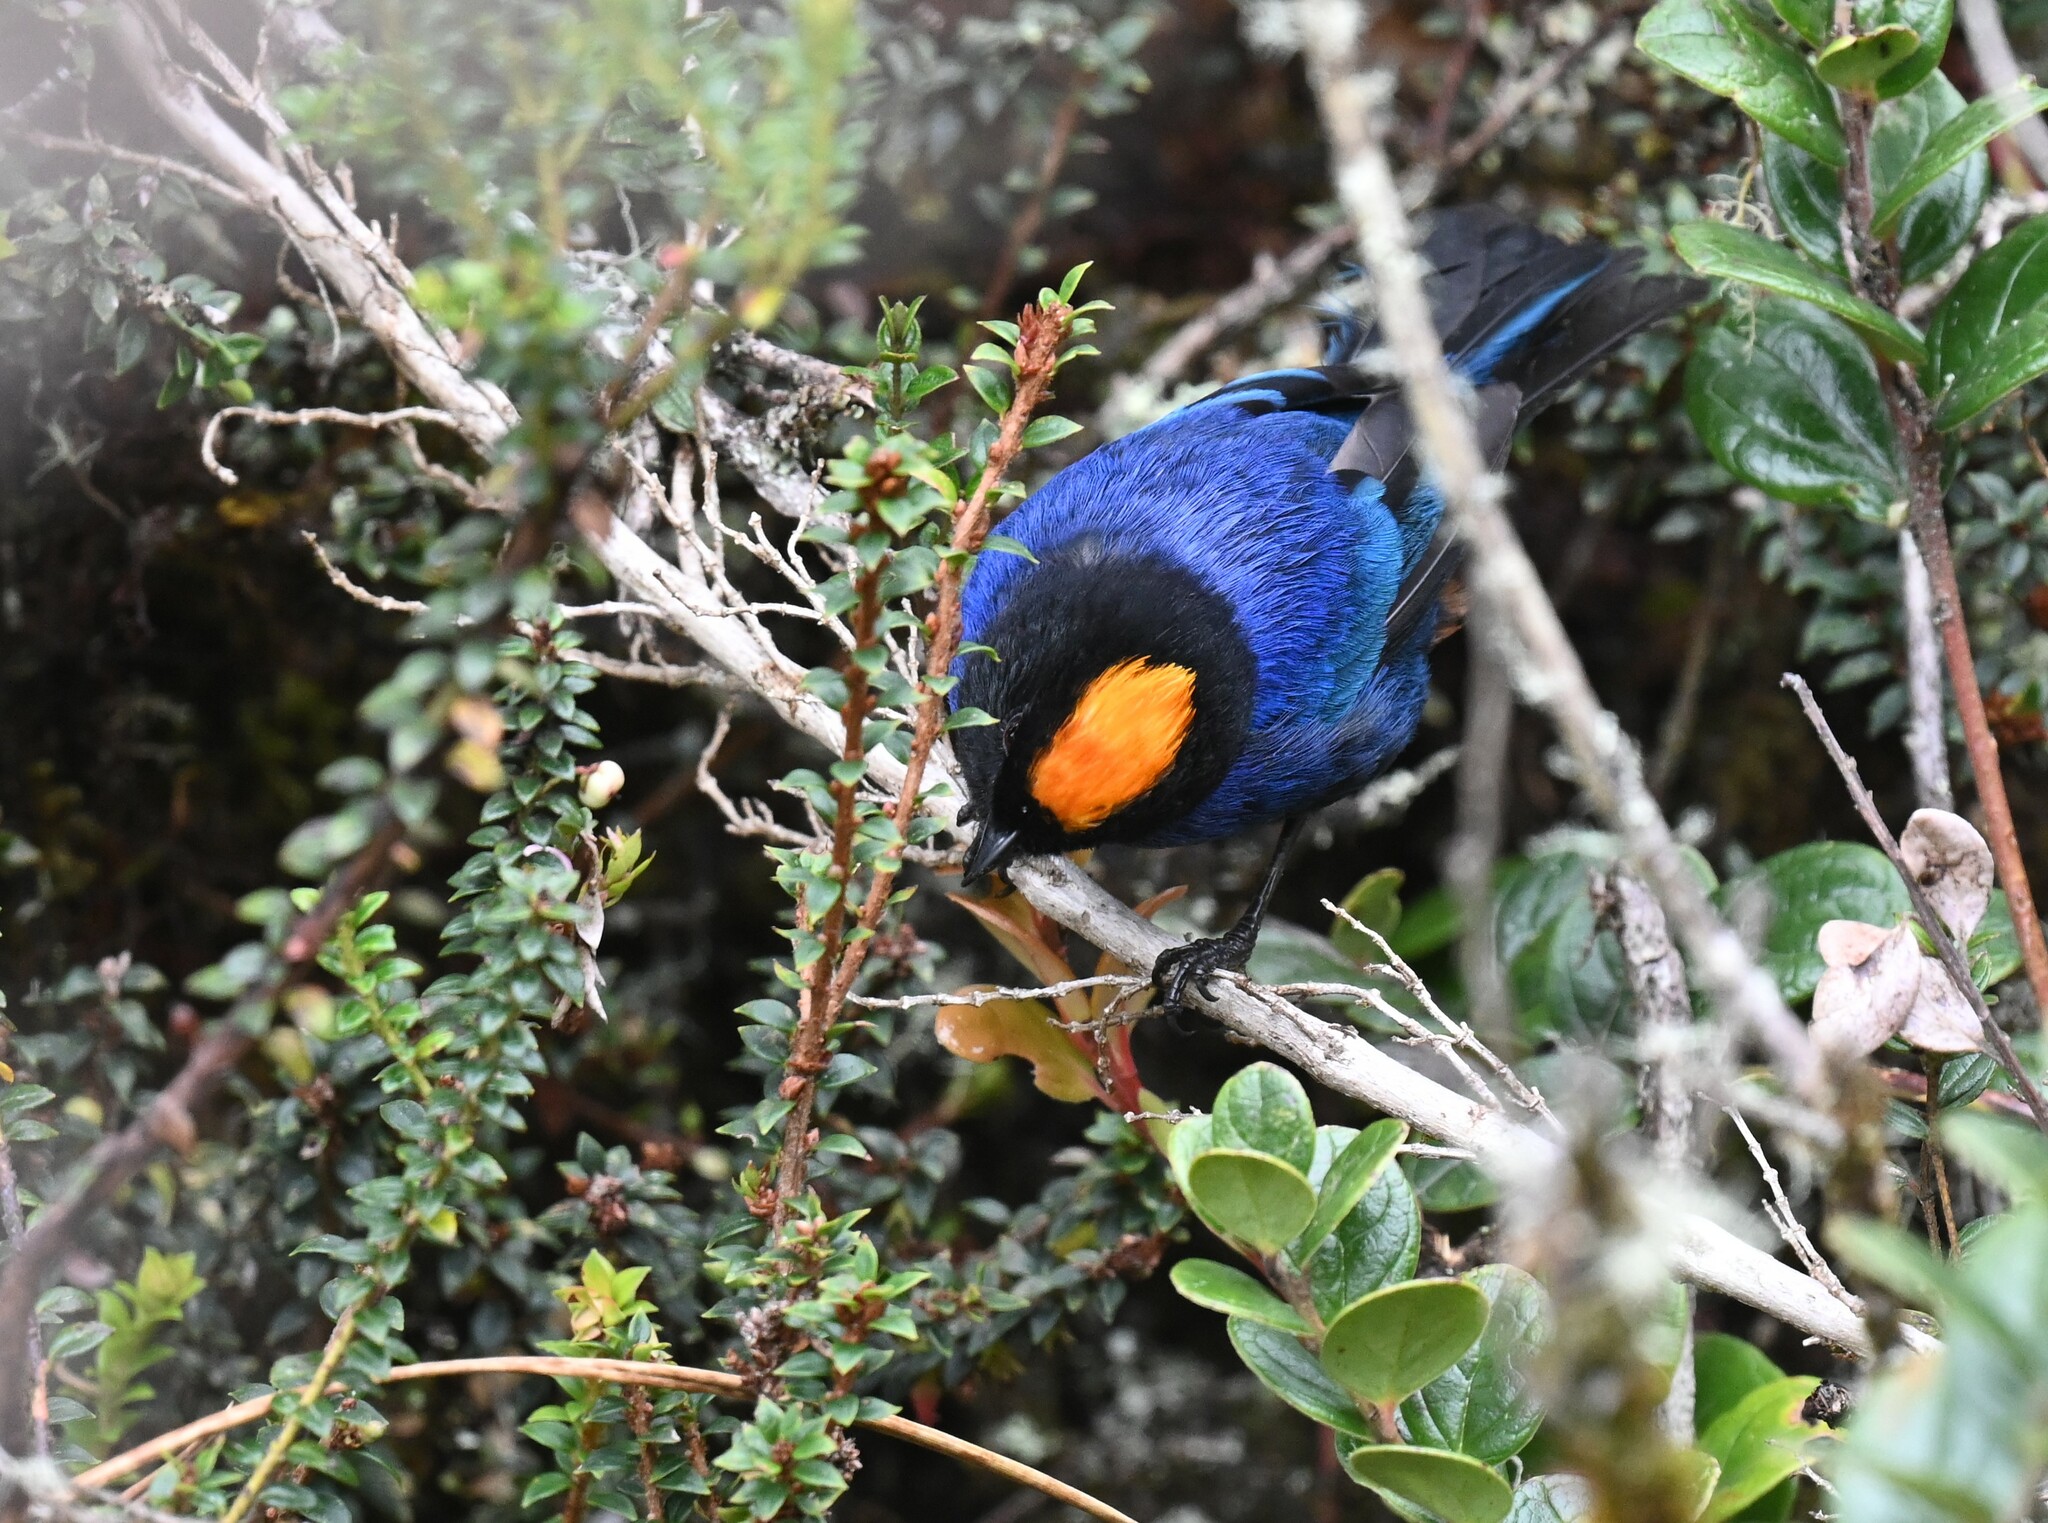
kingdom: Animalia
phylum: Chordata
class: Aves
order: Passeriformes
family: Thraupidae
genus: Iridosornis
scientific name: Iridosornis rufivertex
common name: Golden-crowned tanager
